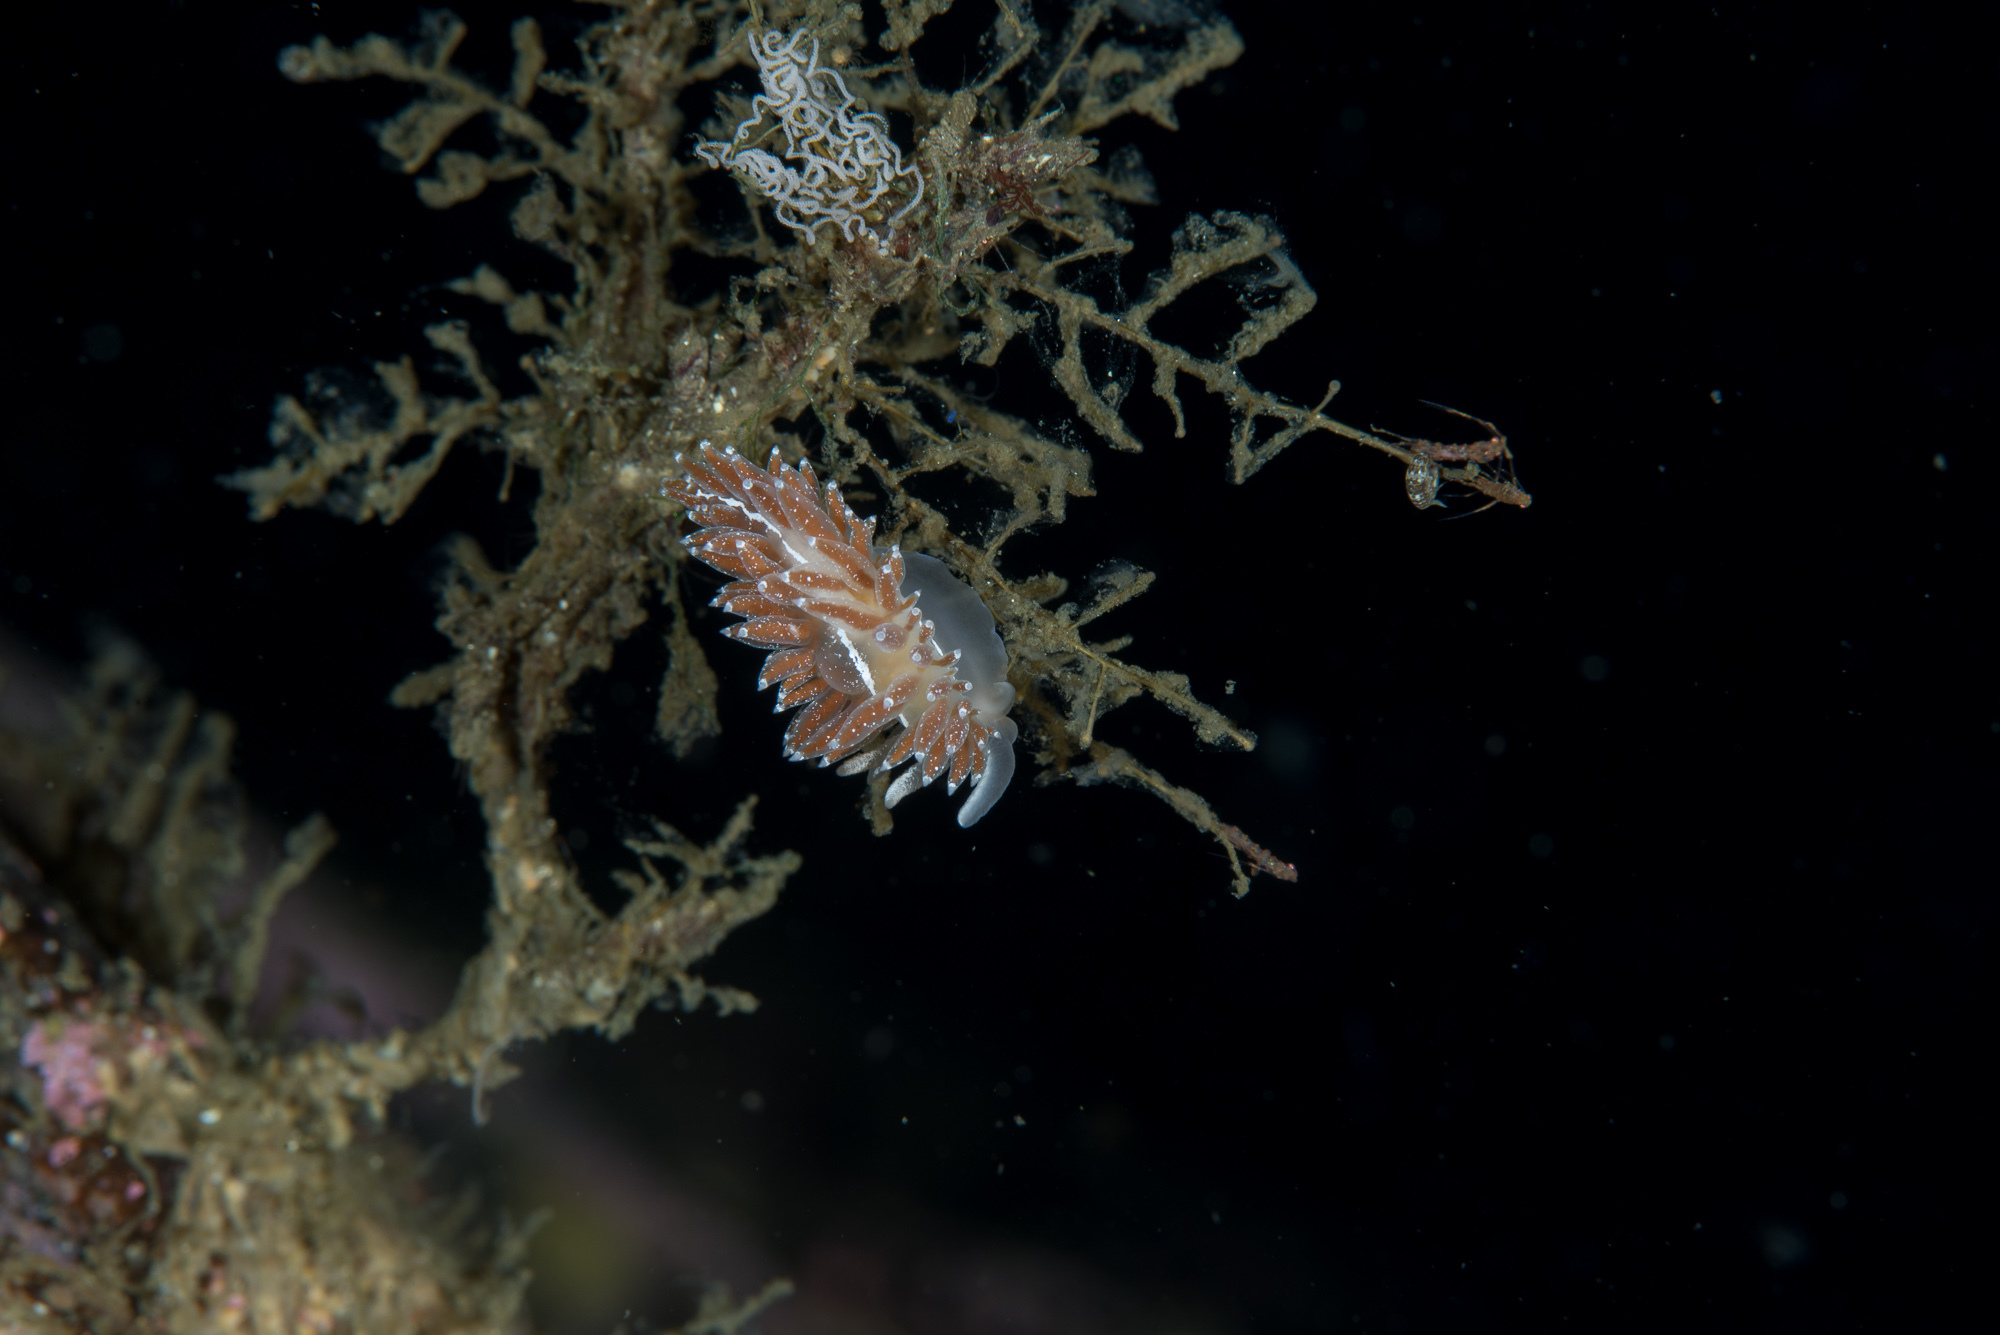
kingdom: Animalia
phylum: Mollusca
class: Gastropoda
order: Nudibranchia
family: Coryphellidae
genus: Coryphella
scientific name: Coryphella orjani
